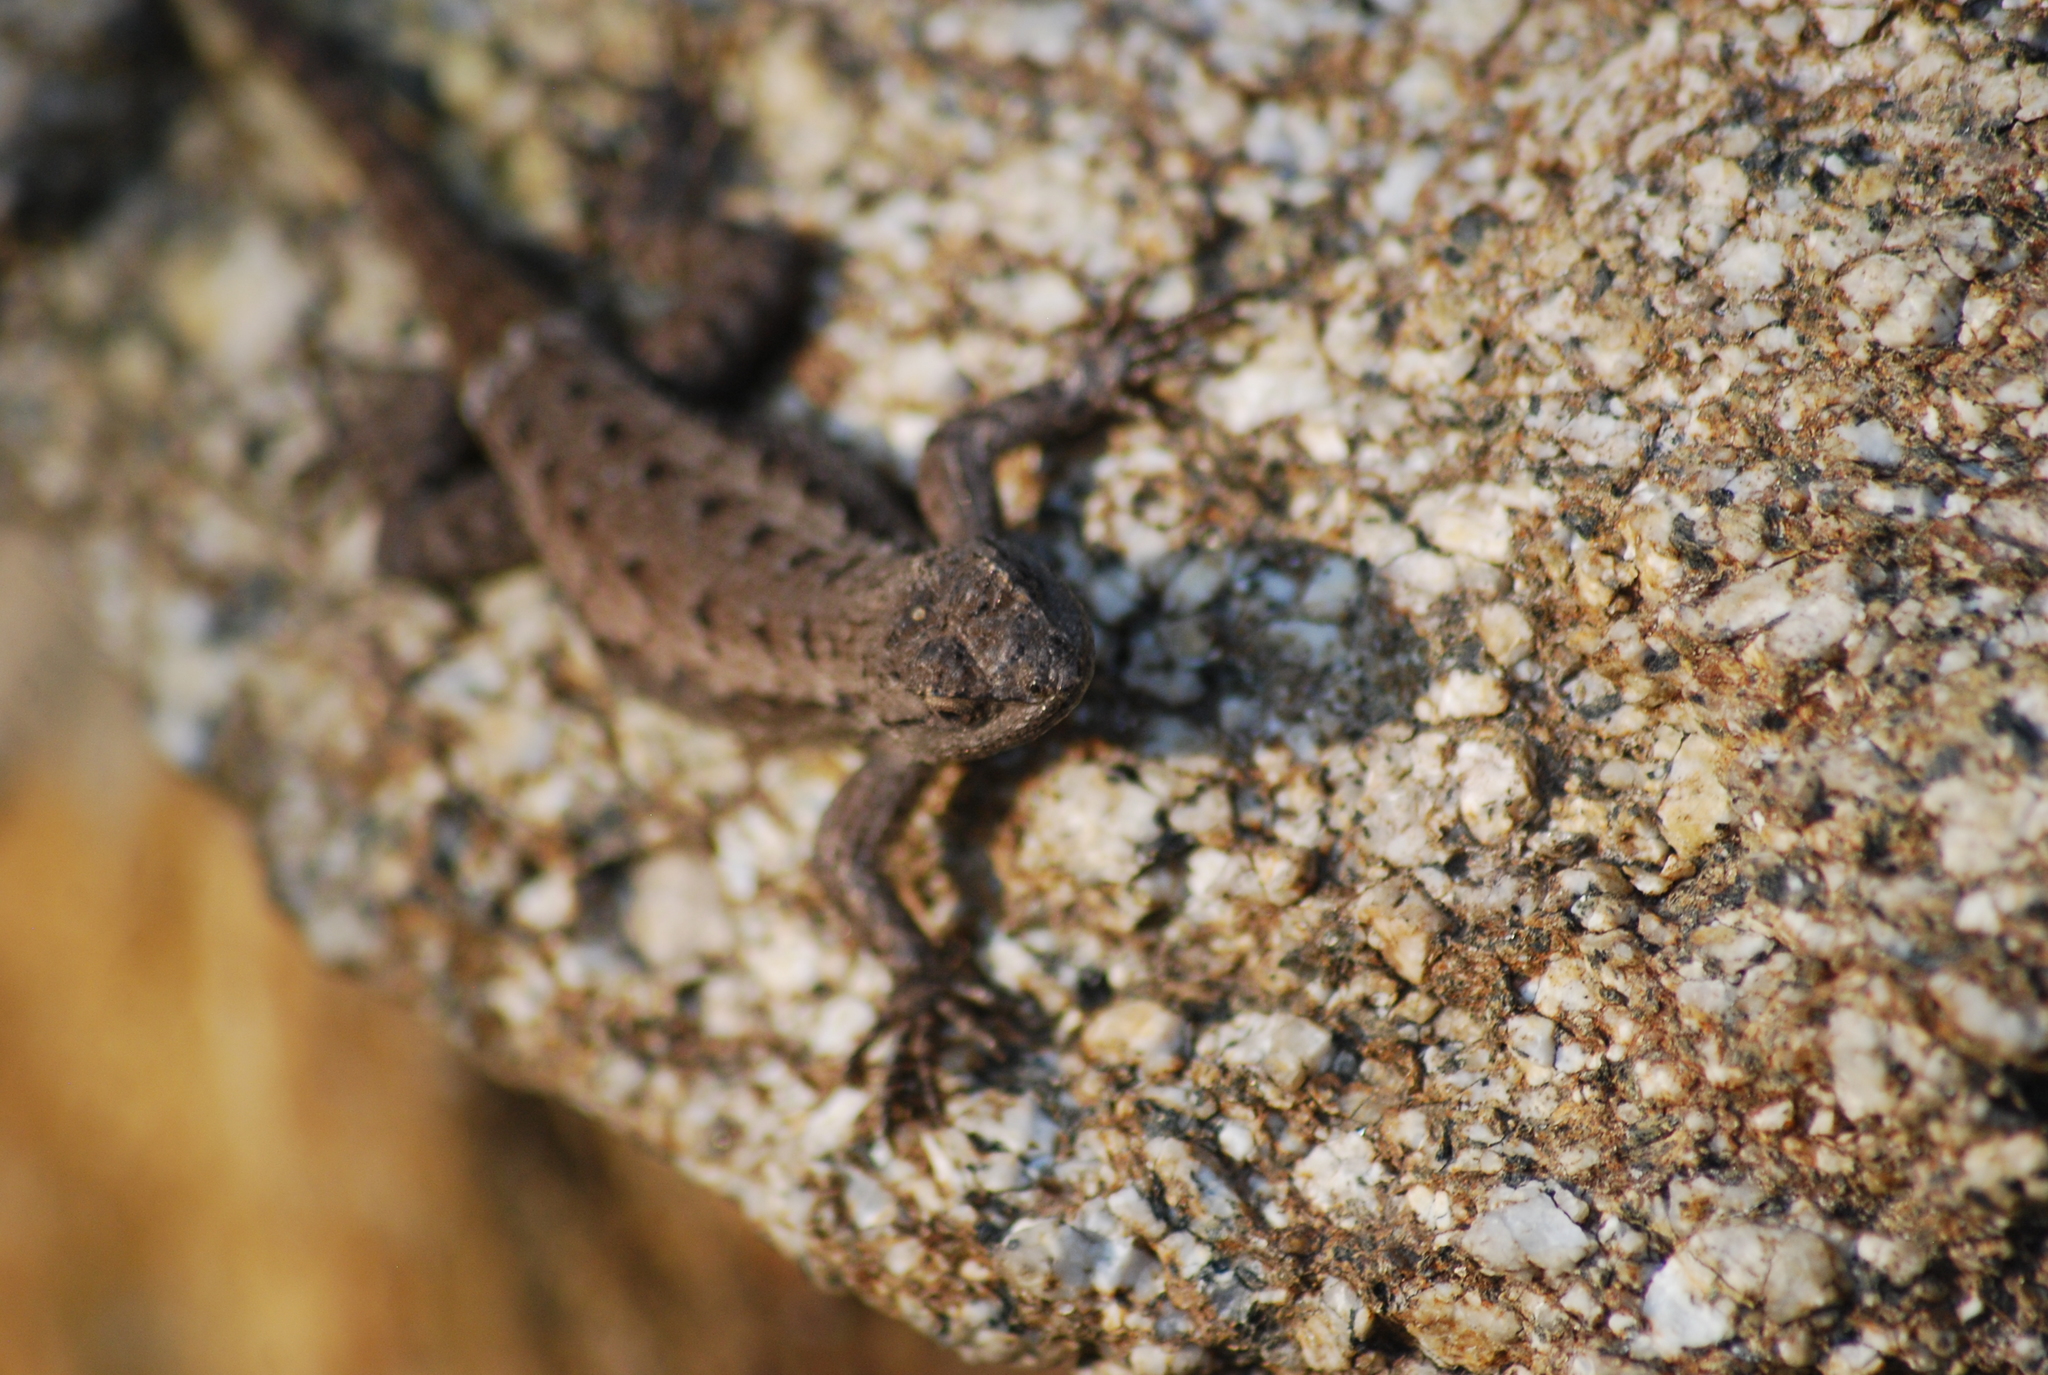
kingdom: Animalia
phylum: Chordata
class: Squamata
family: Phrynosomatidae
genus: Sceloporus
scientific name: Sceloporus occidentalis
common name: Western fence lizard
